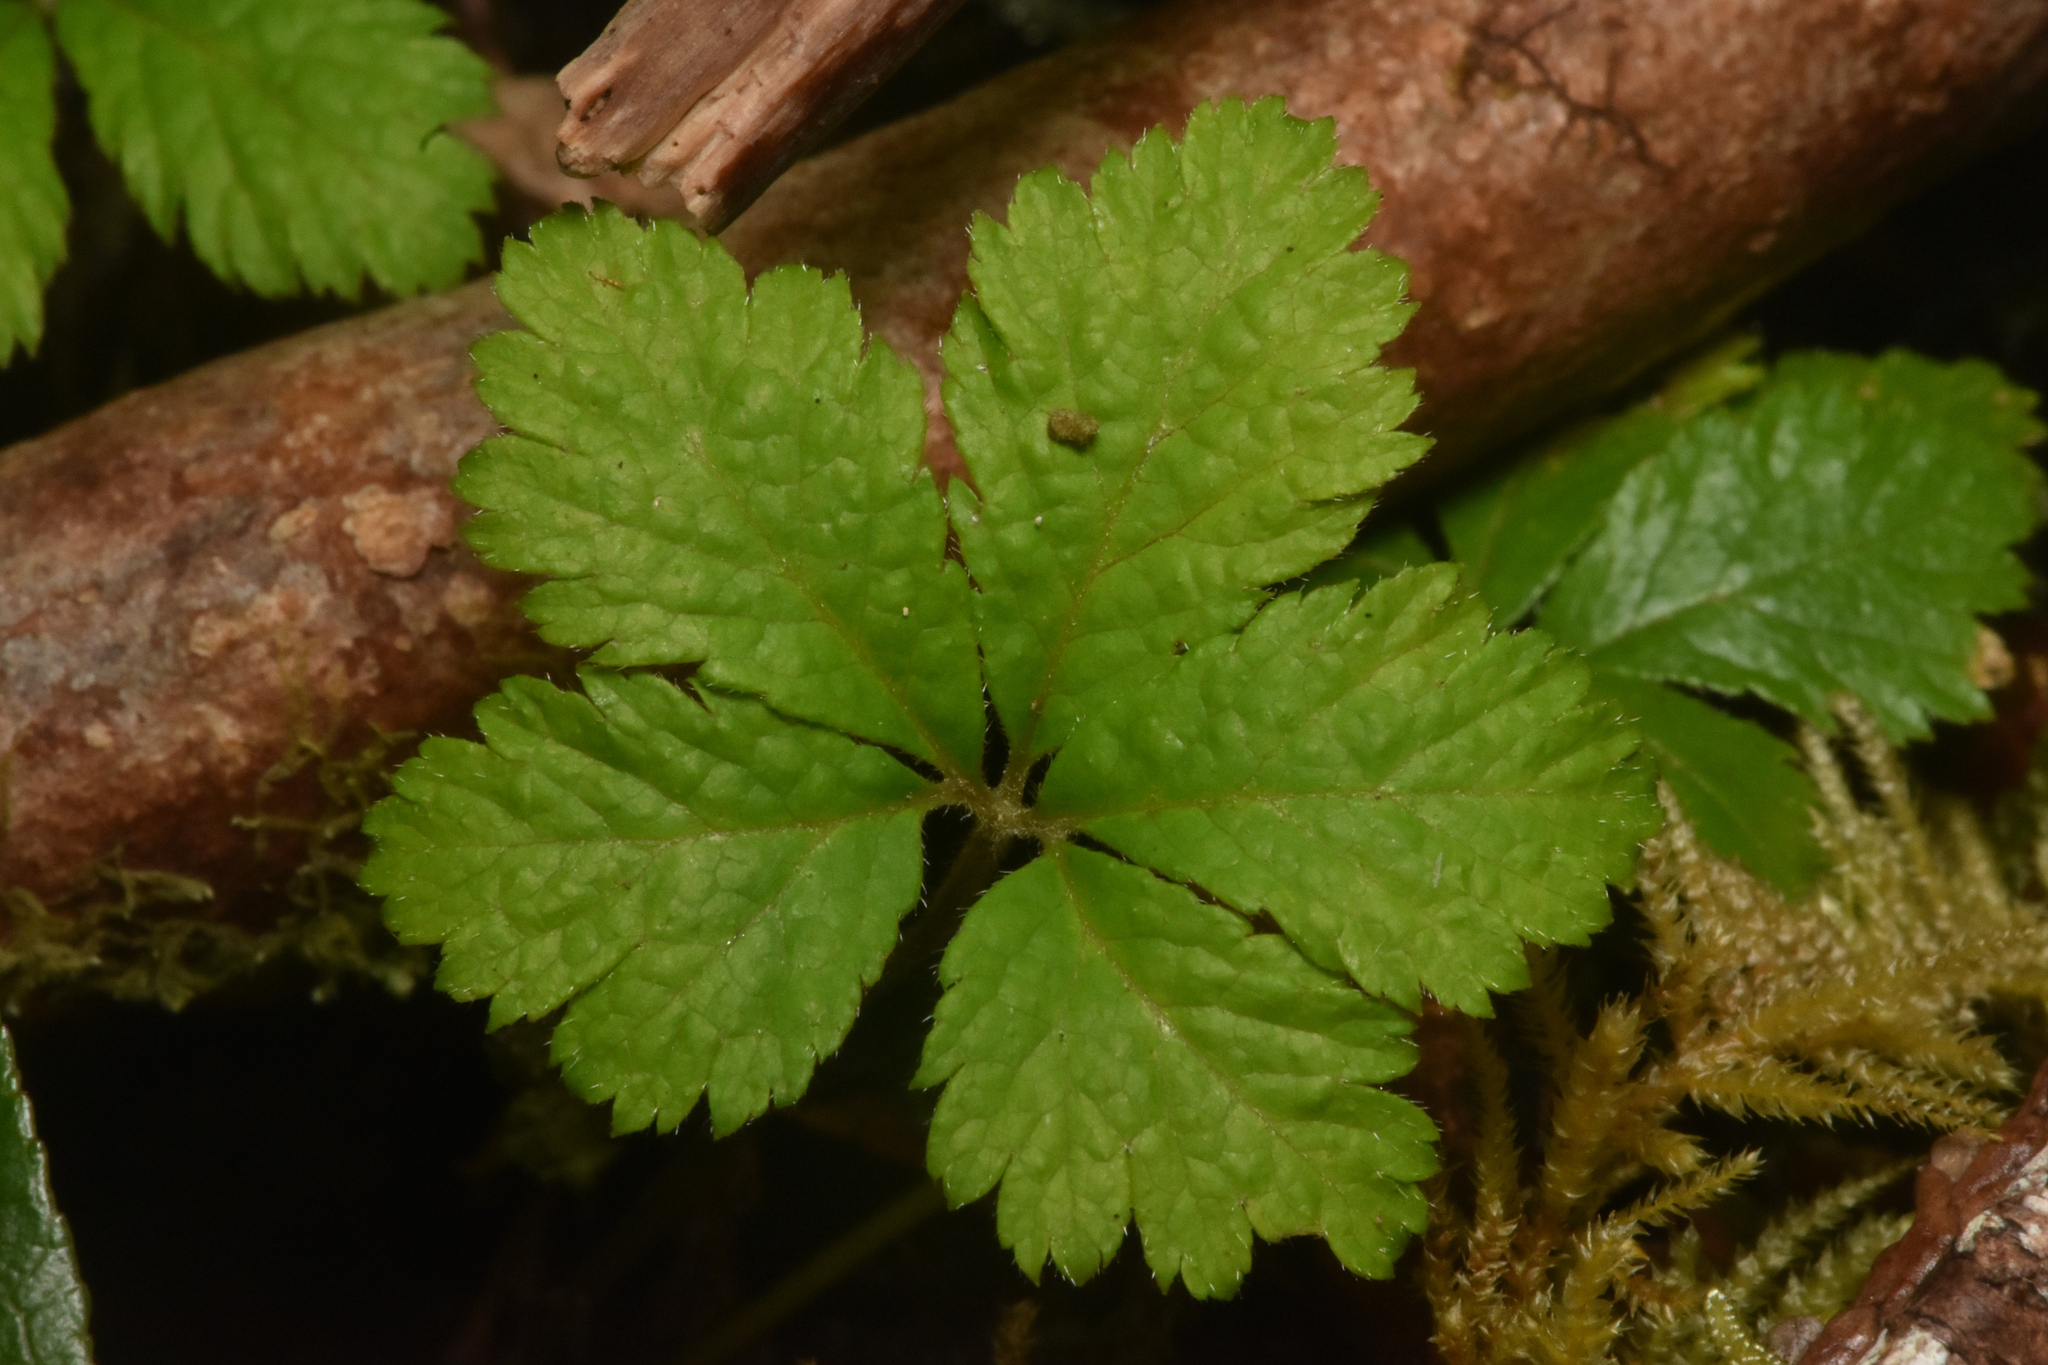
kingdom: Plantae
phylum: Tracheophyta
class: Magnoliopsida
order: Rosales
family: Rosaceae
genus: Rubus
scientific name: Rubus pedatus
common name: Creeping raspberry
